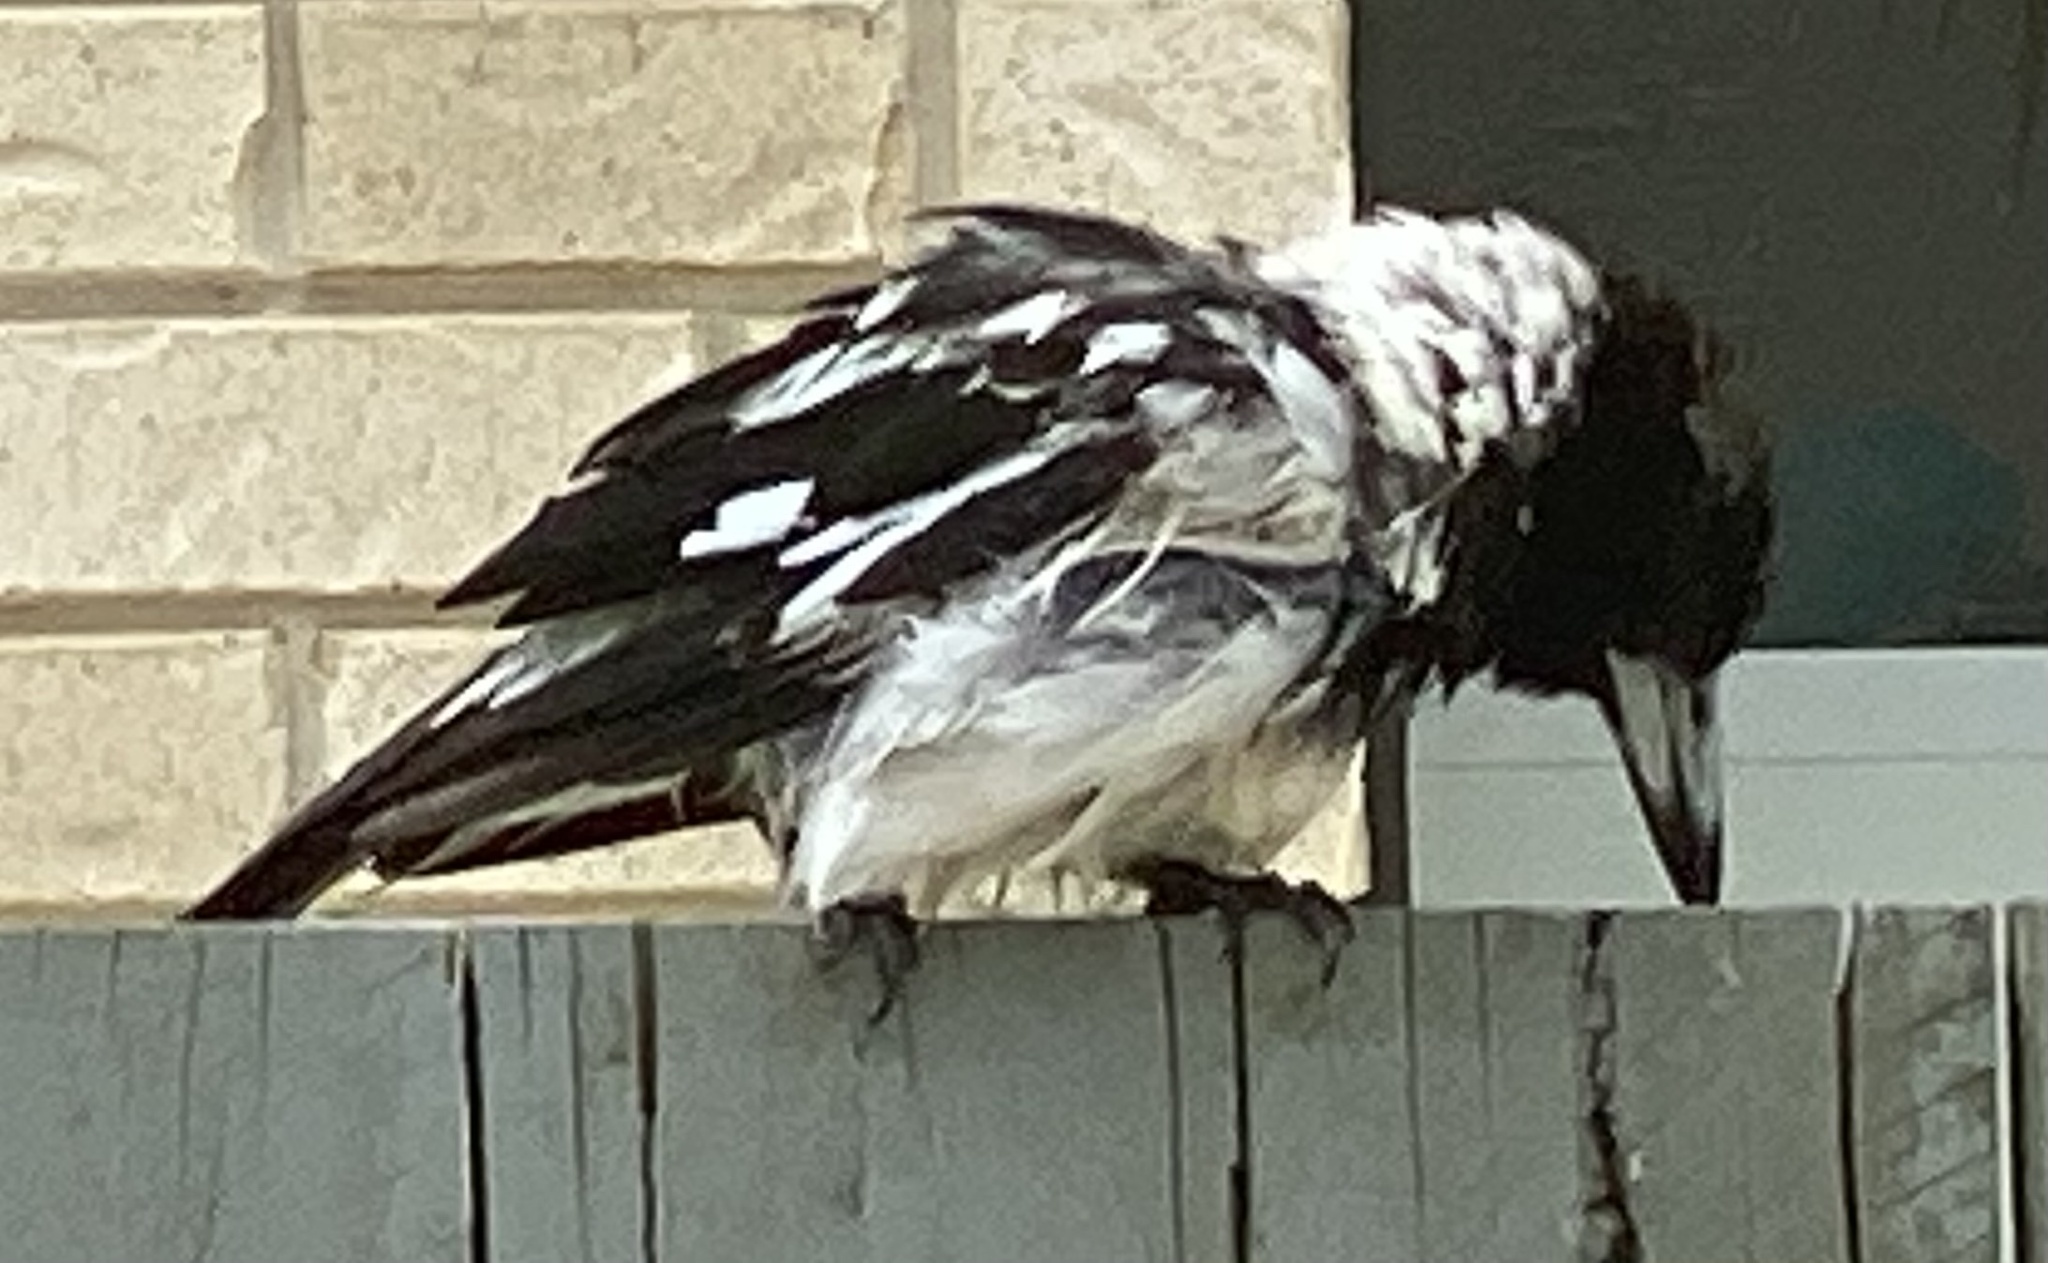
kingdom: Animalia
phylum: Chordata
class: Aves
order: Passeriformes
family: Cracticidae
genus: Cracticus
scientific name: Cracticus nigrogularis
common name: Pied butcherbird
